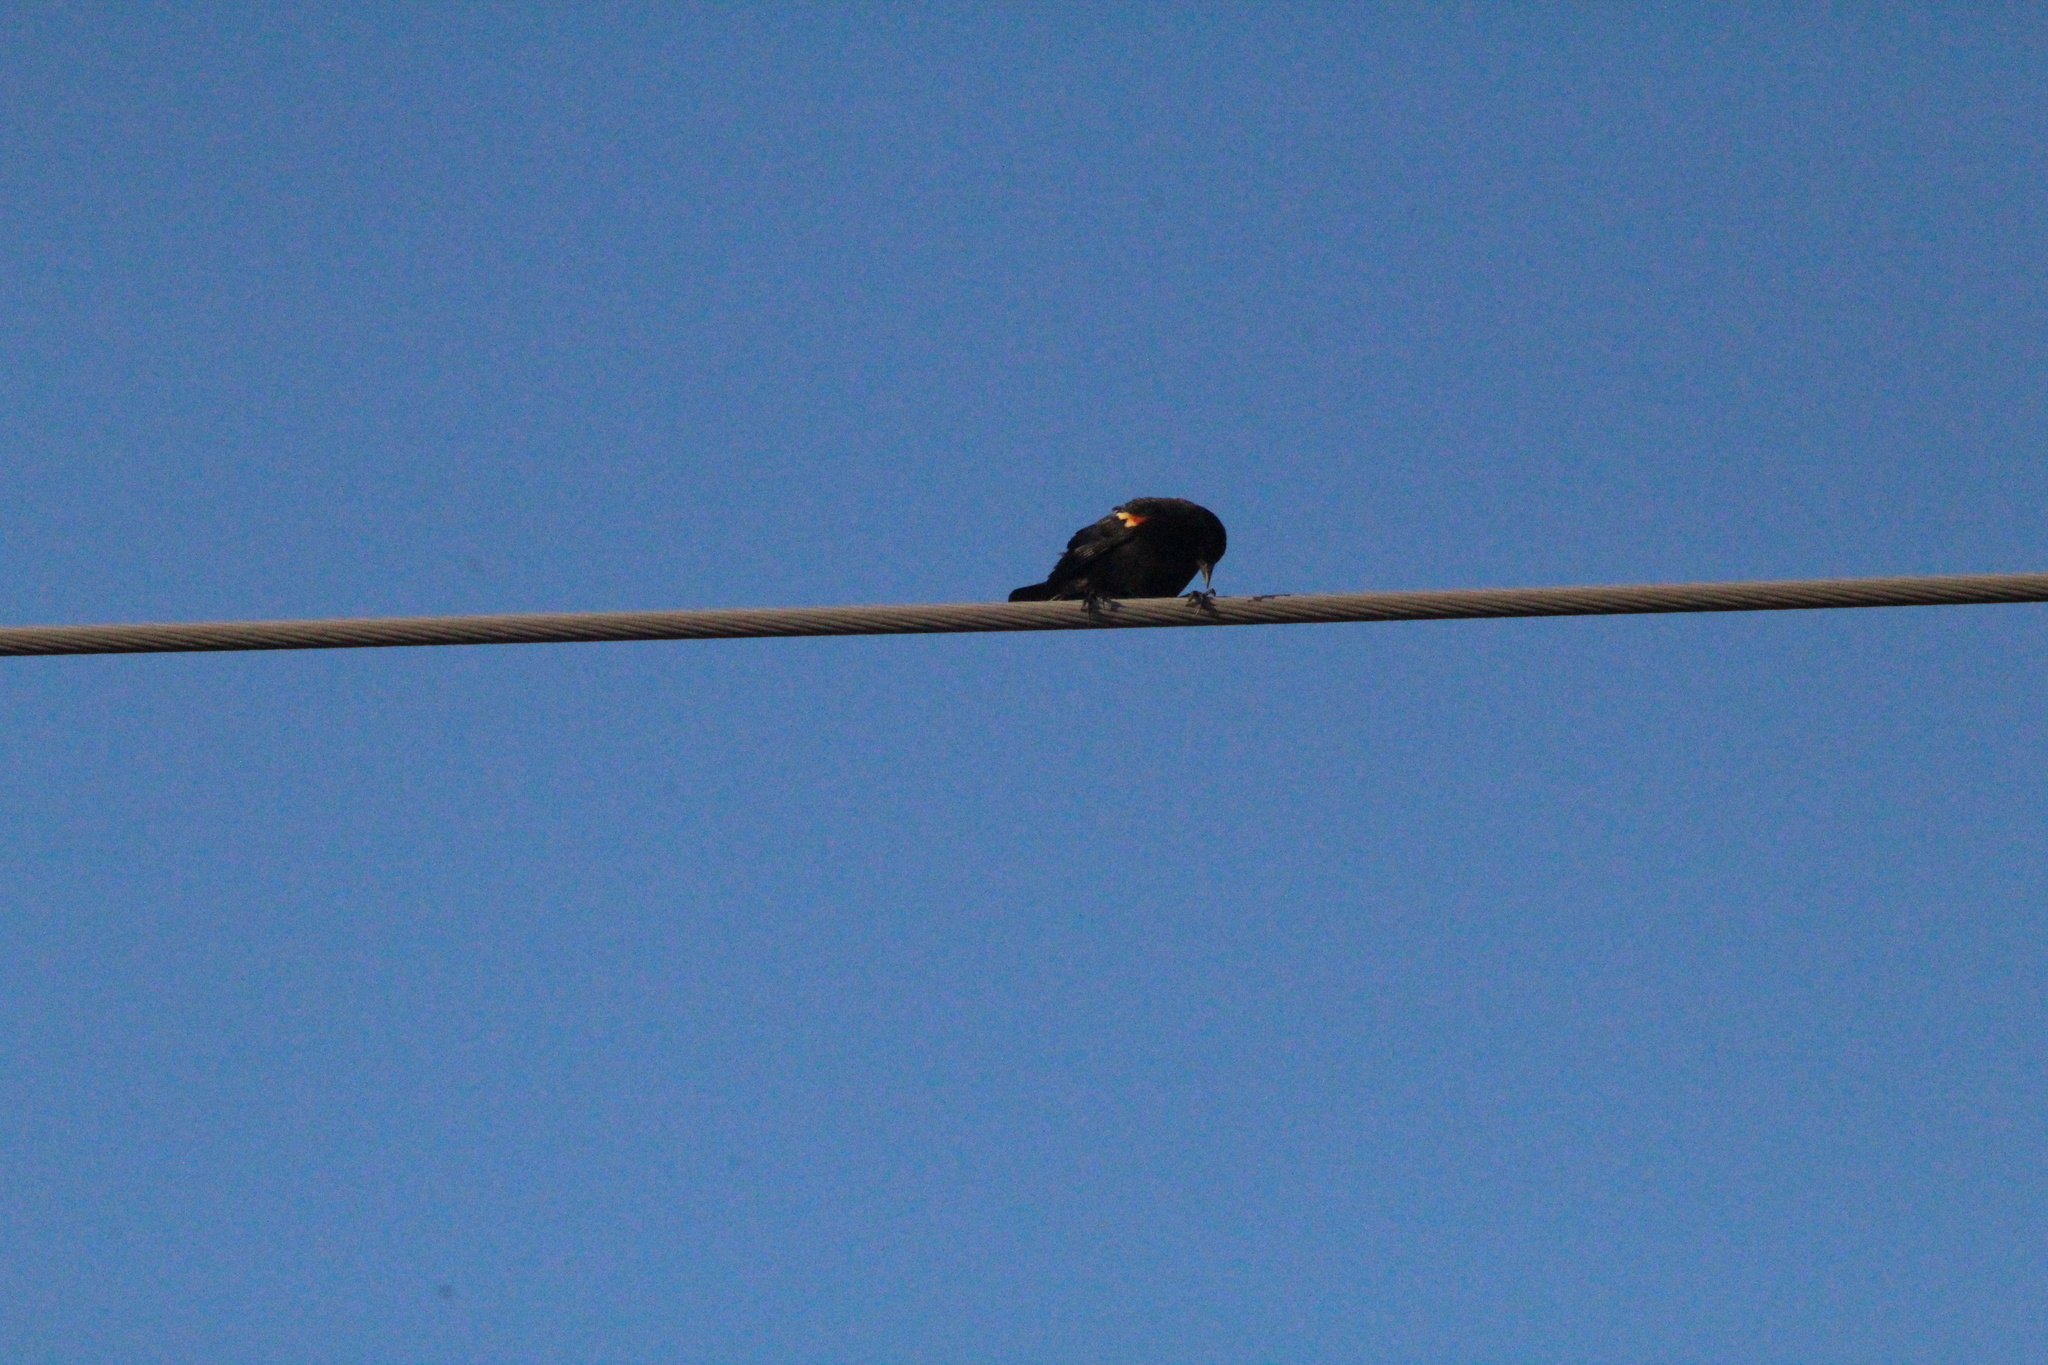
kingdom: Animalia
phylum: Chordata
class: Aves
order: Passeriformes
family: Icteridae
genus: Agelaius
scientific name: Agelaius phoeniceus
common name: Red-winged blackbird
